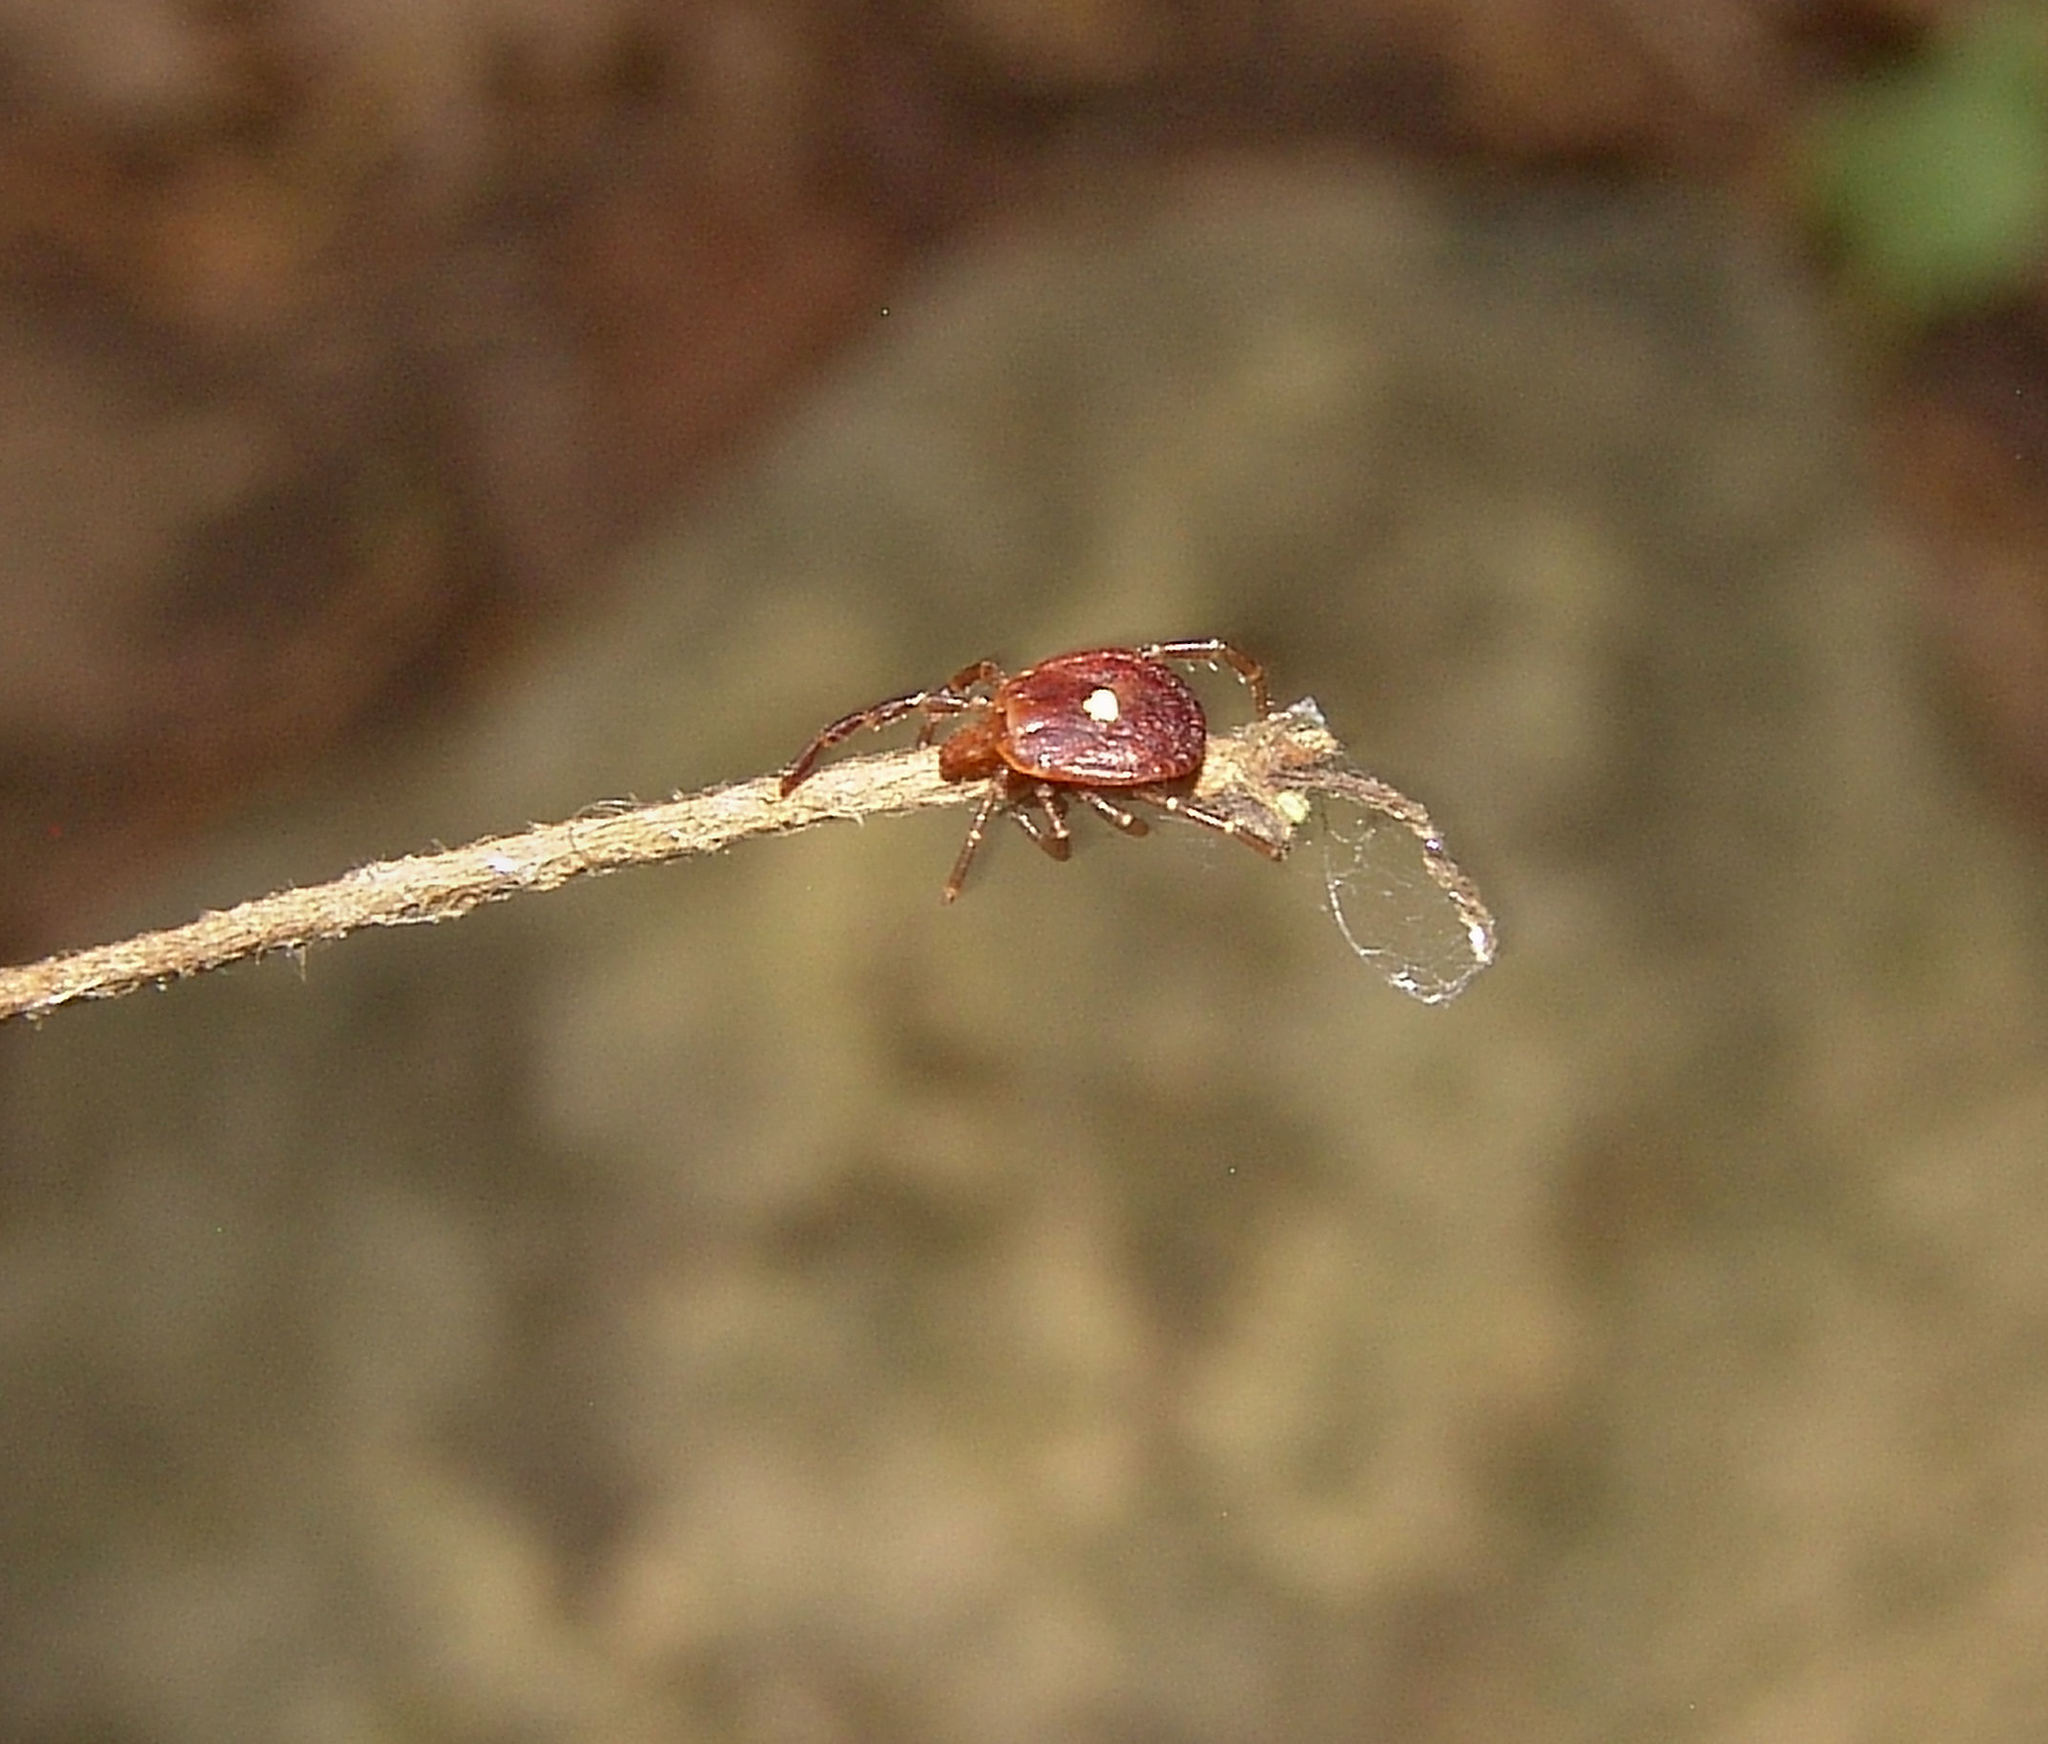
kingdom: Animalia
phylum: Arthropoda
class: Arachnida
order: Ixodida
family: Ixodidae
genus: Amblyomma
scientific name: Amblyomma americanum
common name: Lone star tick
